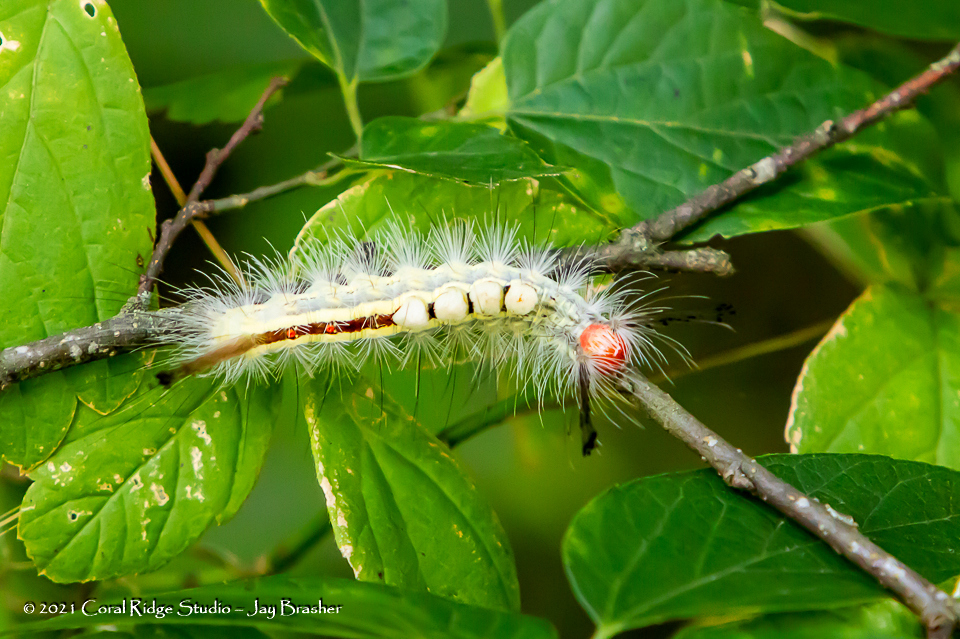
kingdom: Animalia
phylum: Arthropoda
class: Insecta
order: Lepidoptera
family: Erebidae
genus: Orgyia
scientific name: Orgyia leucostigma
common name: White-marked tussock moth
